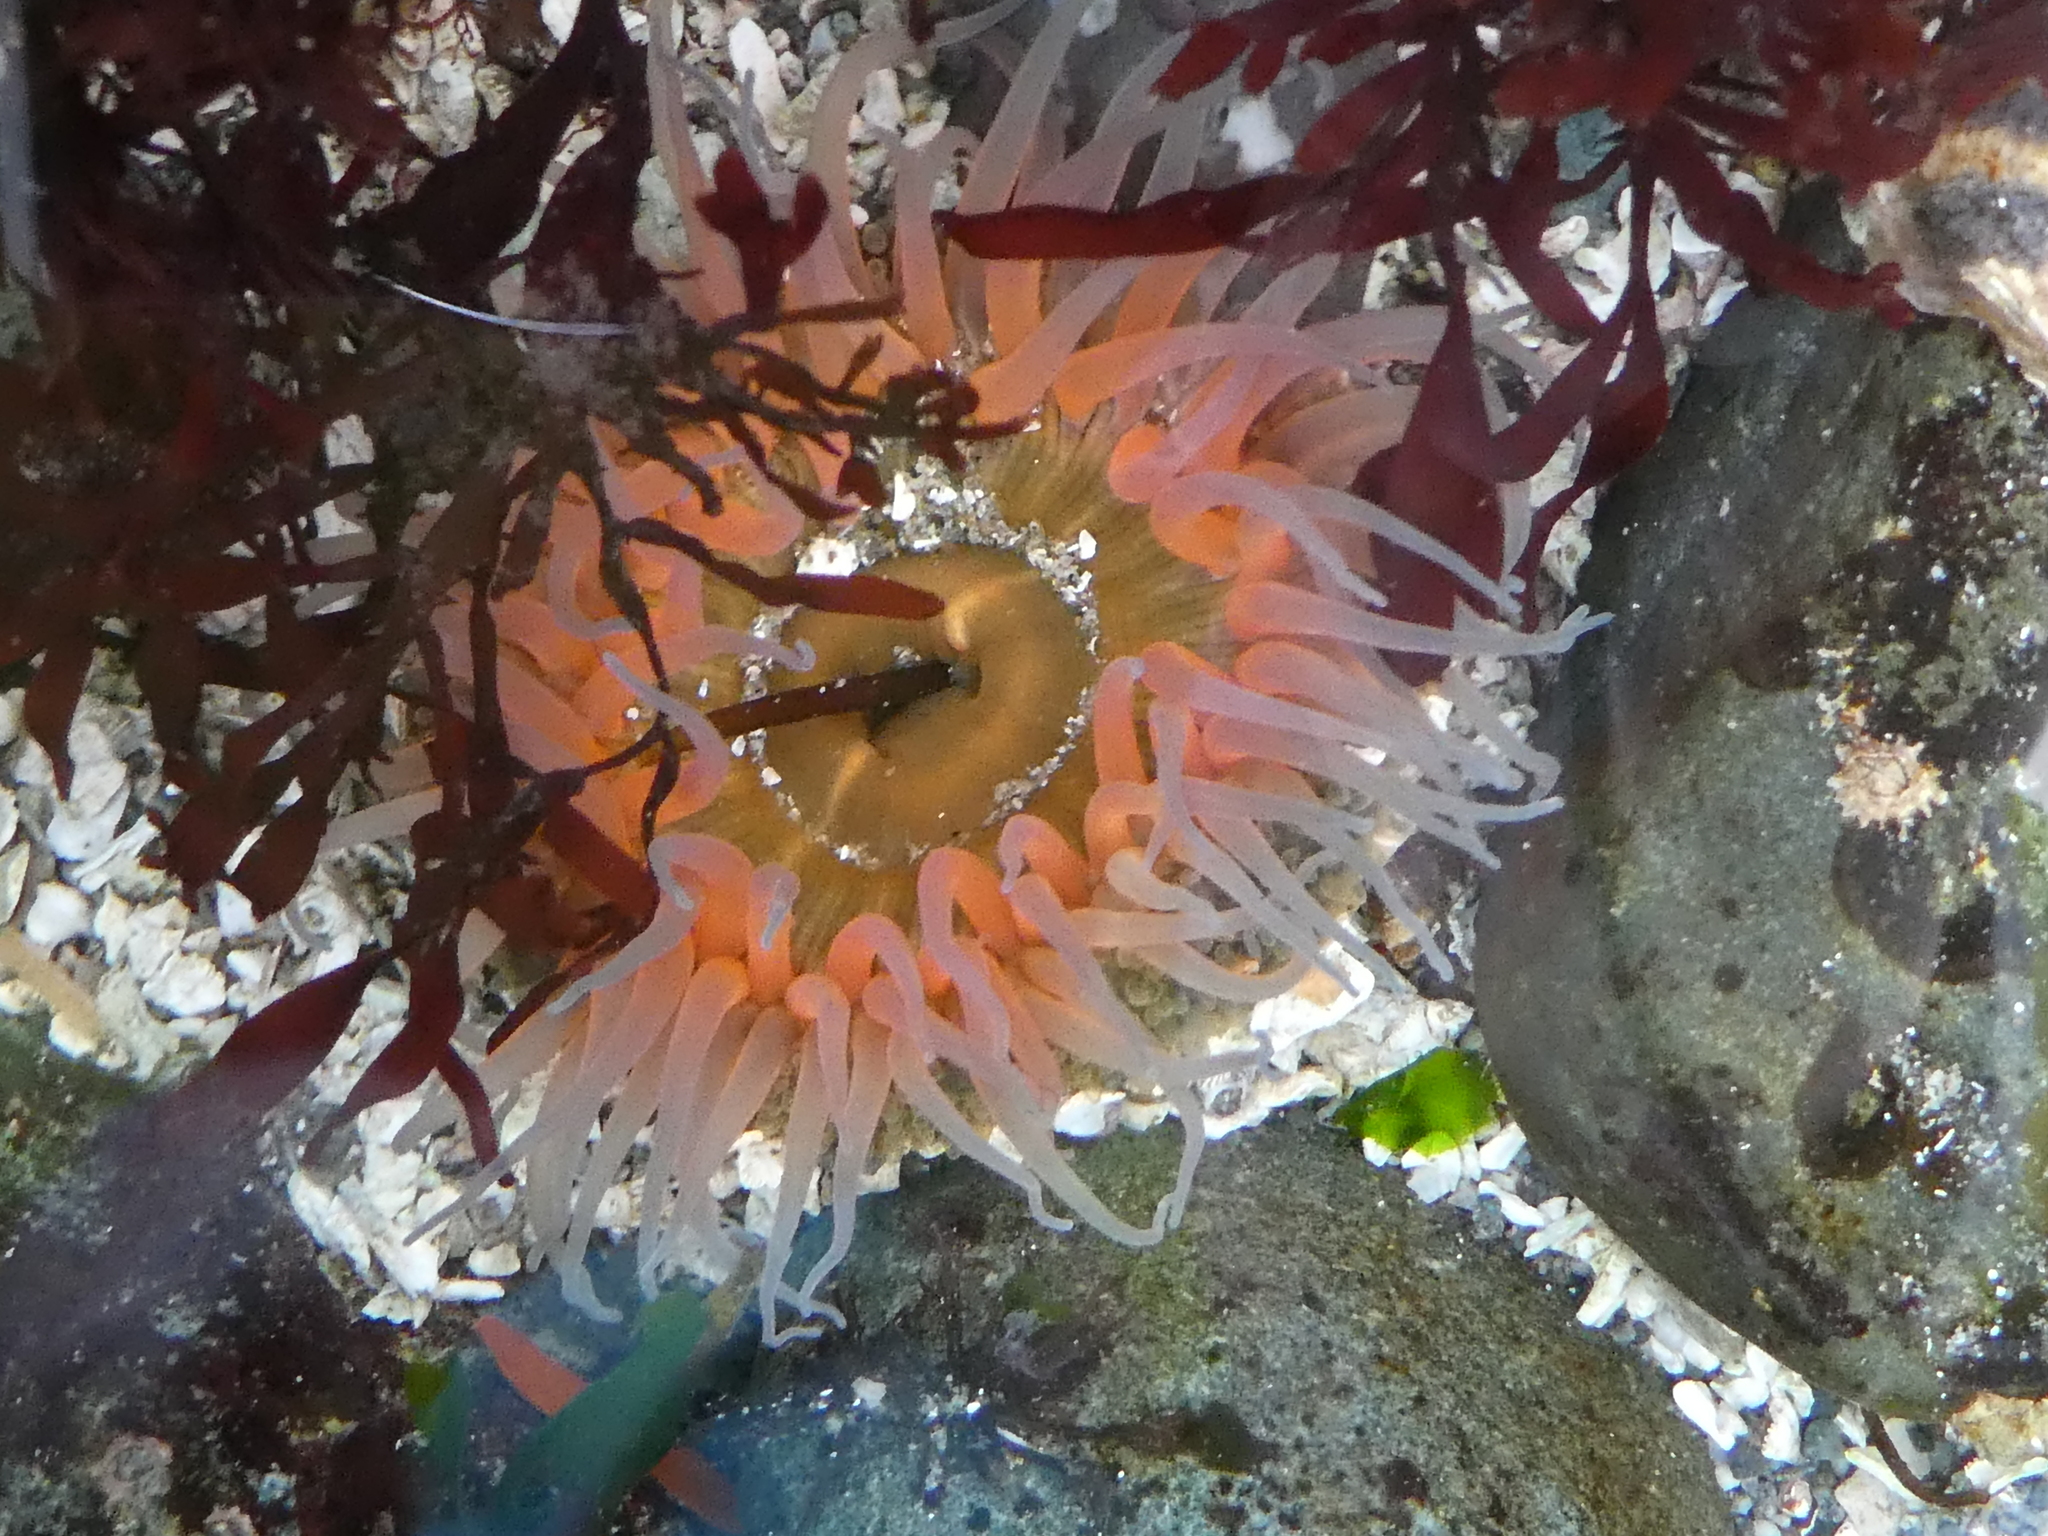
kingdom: Animalia
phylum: Cnidaria
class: Anthozoa
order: Actiniaria
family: Actiniidae
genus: Anthopleura
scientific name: Anthopleura artemisia
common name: Buried sea anemone
